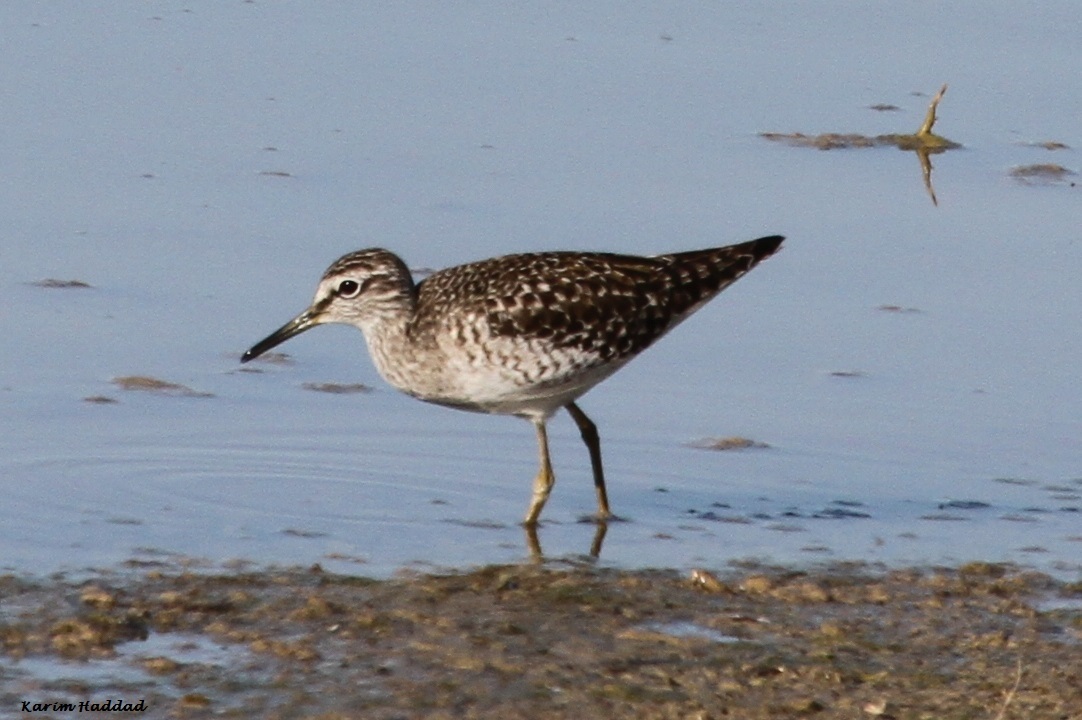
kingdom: Animalia
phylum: Chordata
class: Aves
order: Charadriiformes
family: Scolopacidae
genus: Tringa
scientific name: Tringa glareola
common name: Wood sandpiper
